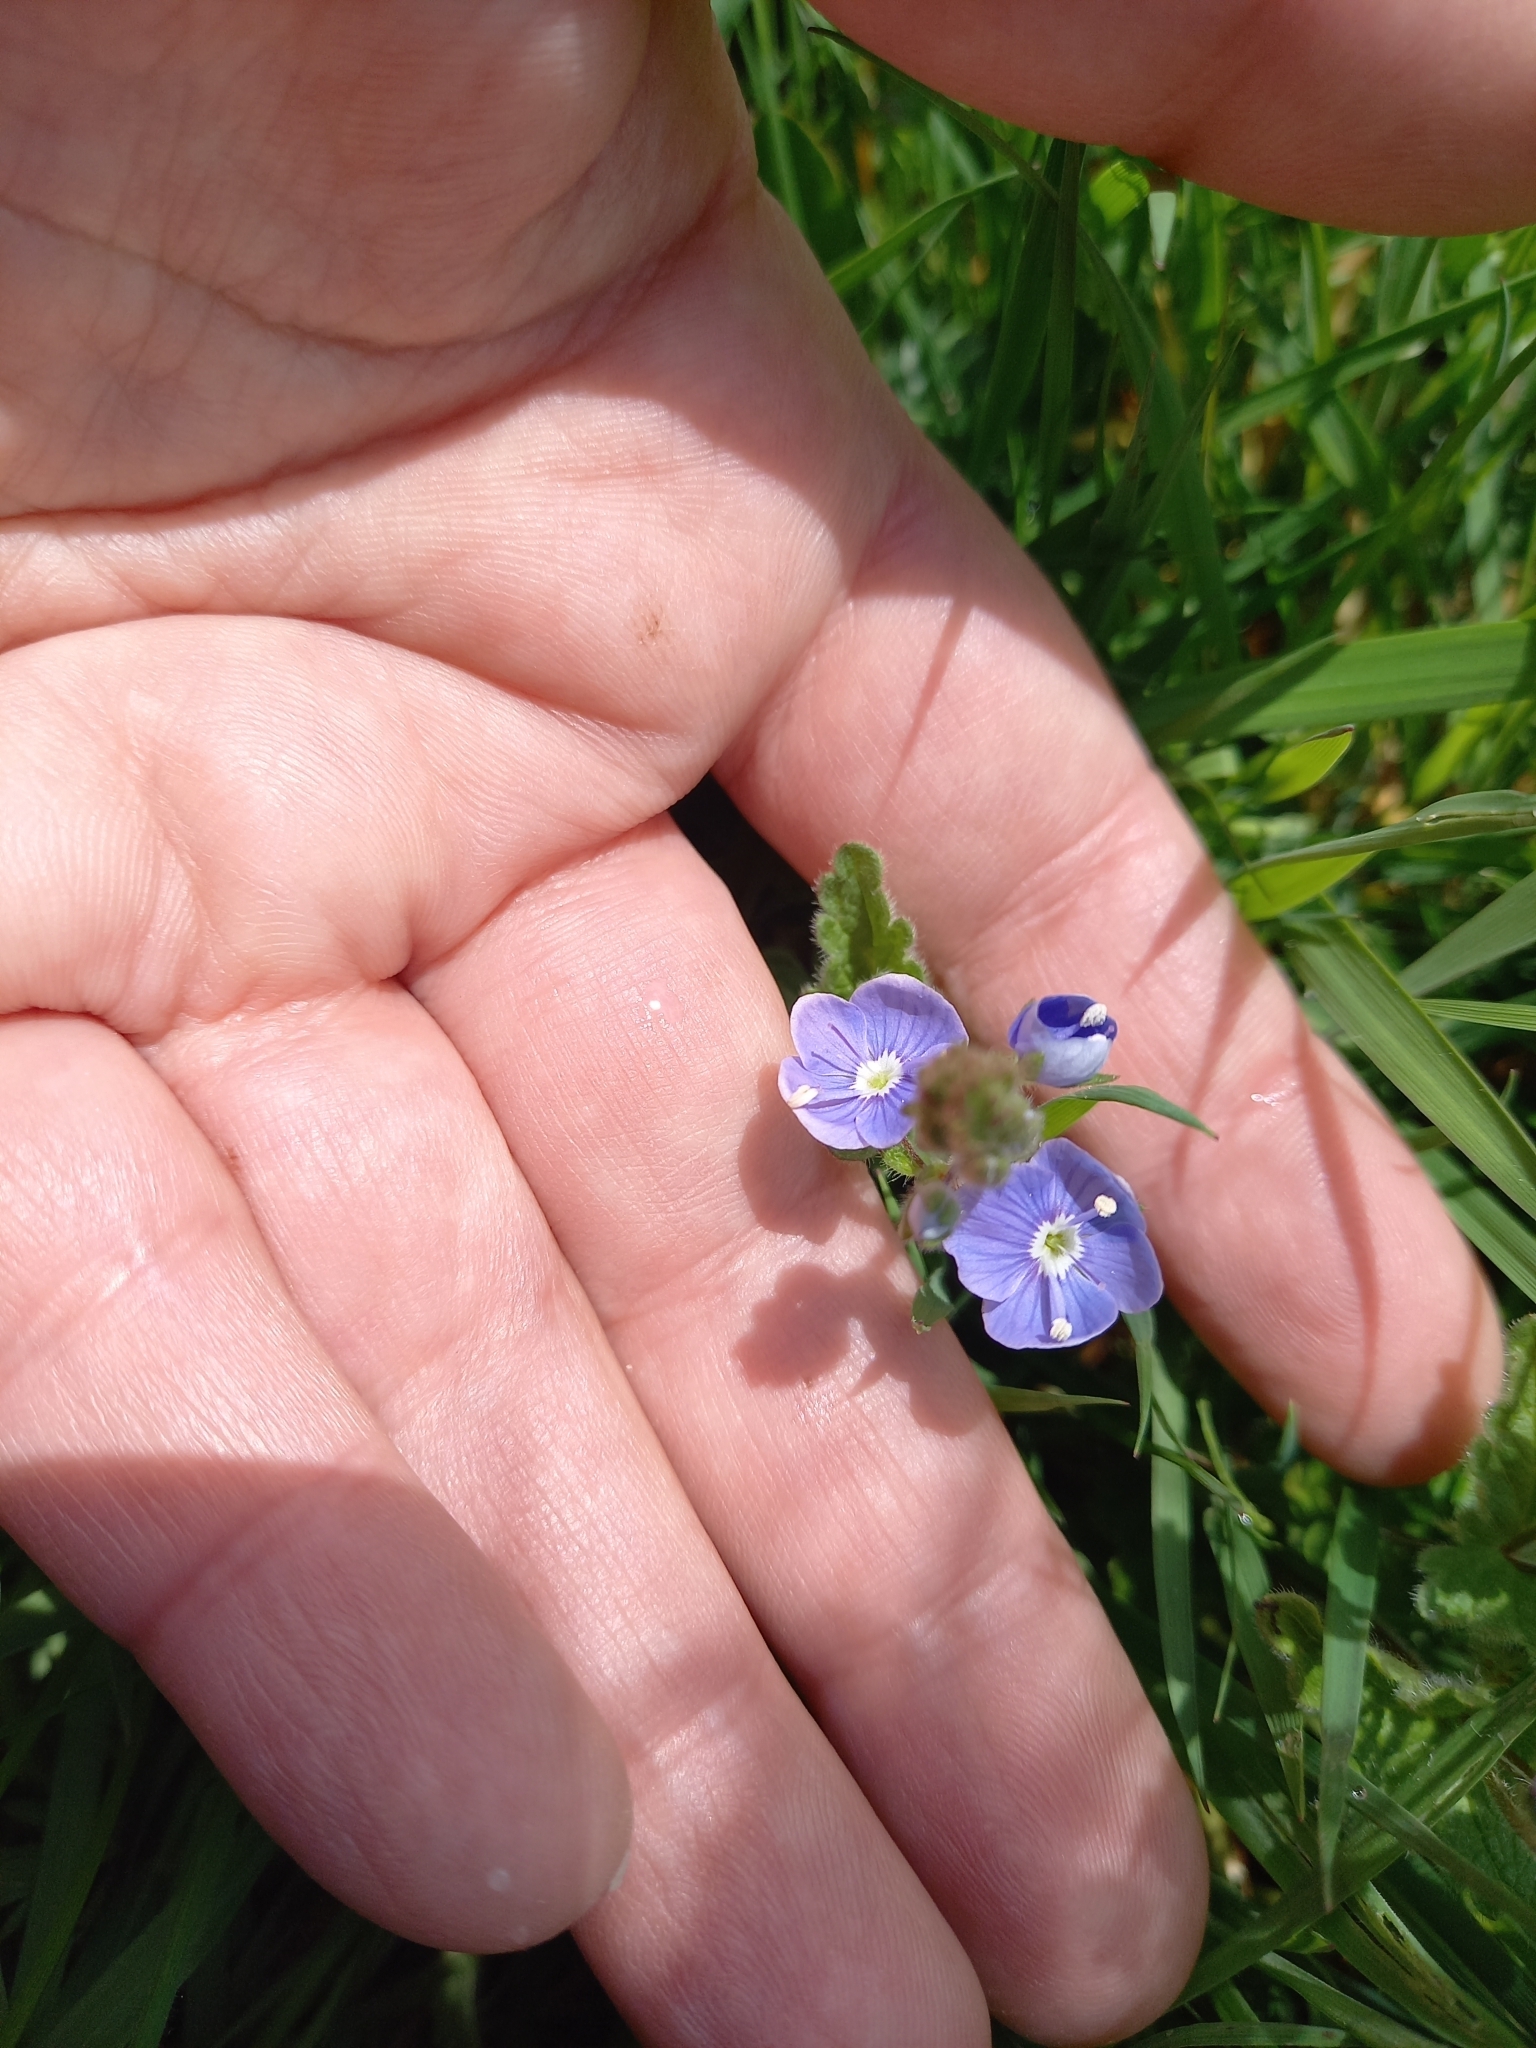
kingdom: Plantae
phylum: Tracheophyta
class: Magnoliopsida
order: Lamiales
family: Plantaginaceae
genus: Veronica
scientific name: Veronica chamaedrys
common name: Germander speedwell
